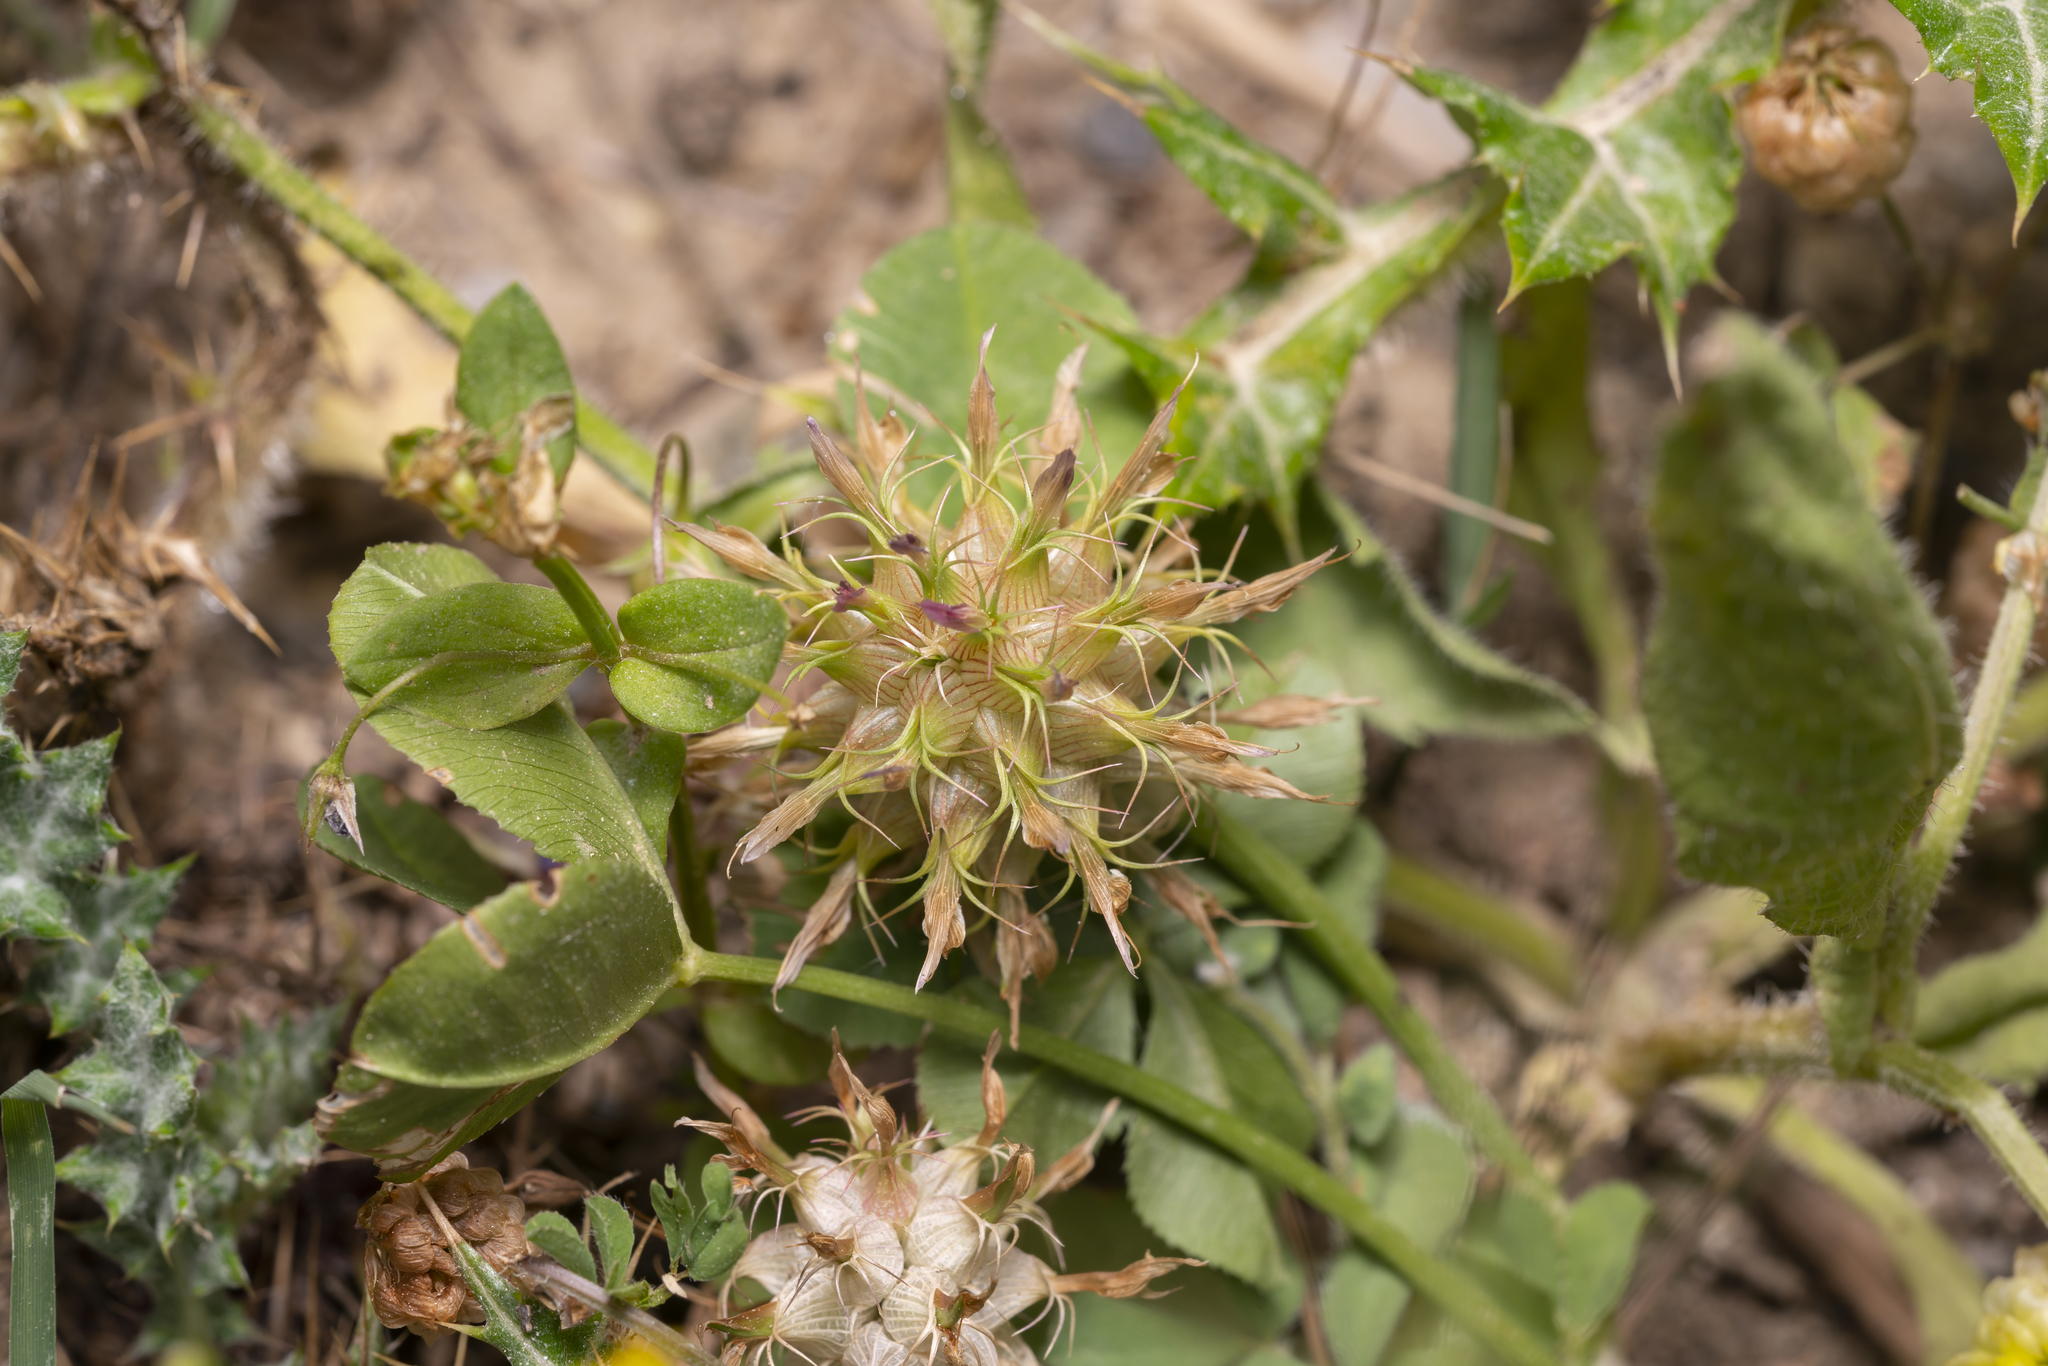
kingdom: Plantae
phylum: Tracheophyta
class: Magnoliopsida
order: Fabales
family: Fabaceae
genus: Trifolium
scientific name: Trifolium spumosum
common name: Mediterranean clover
